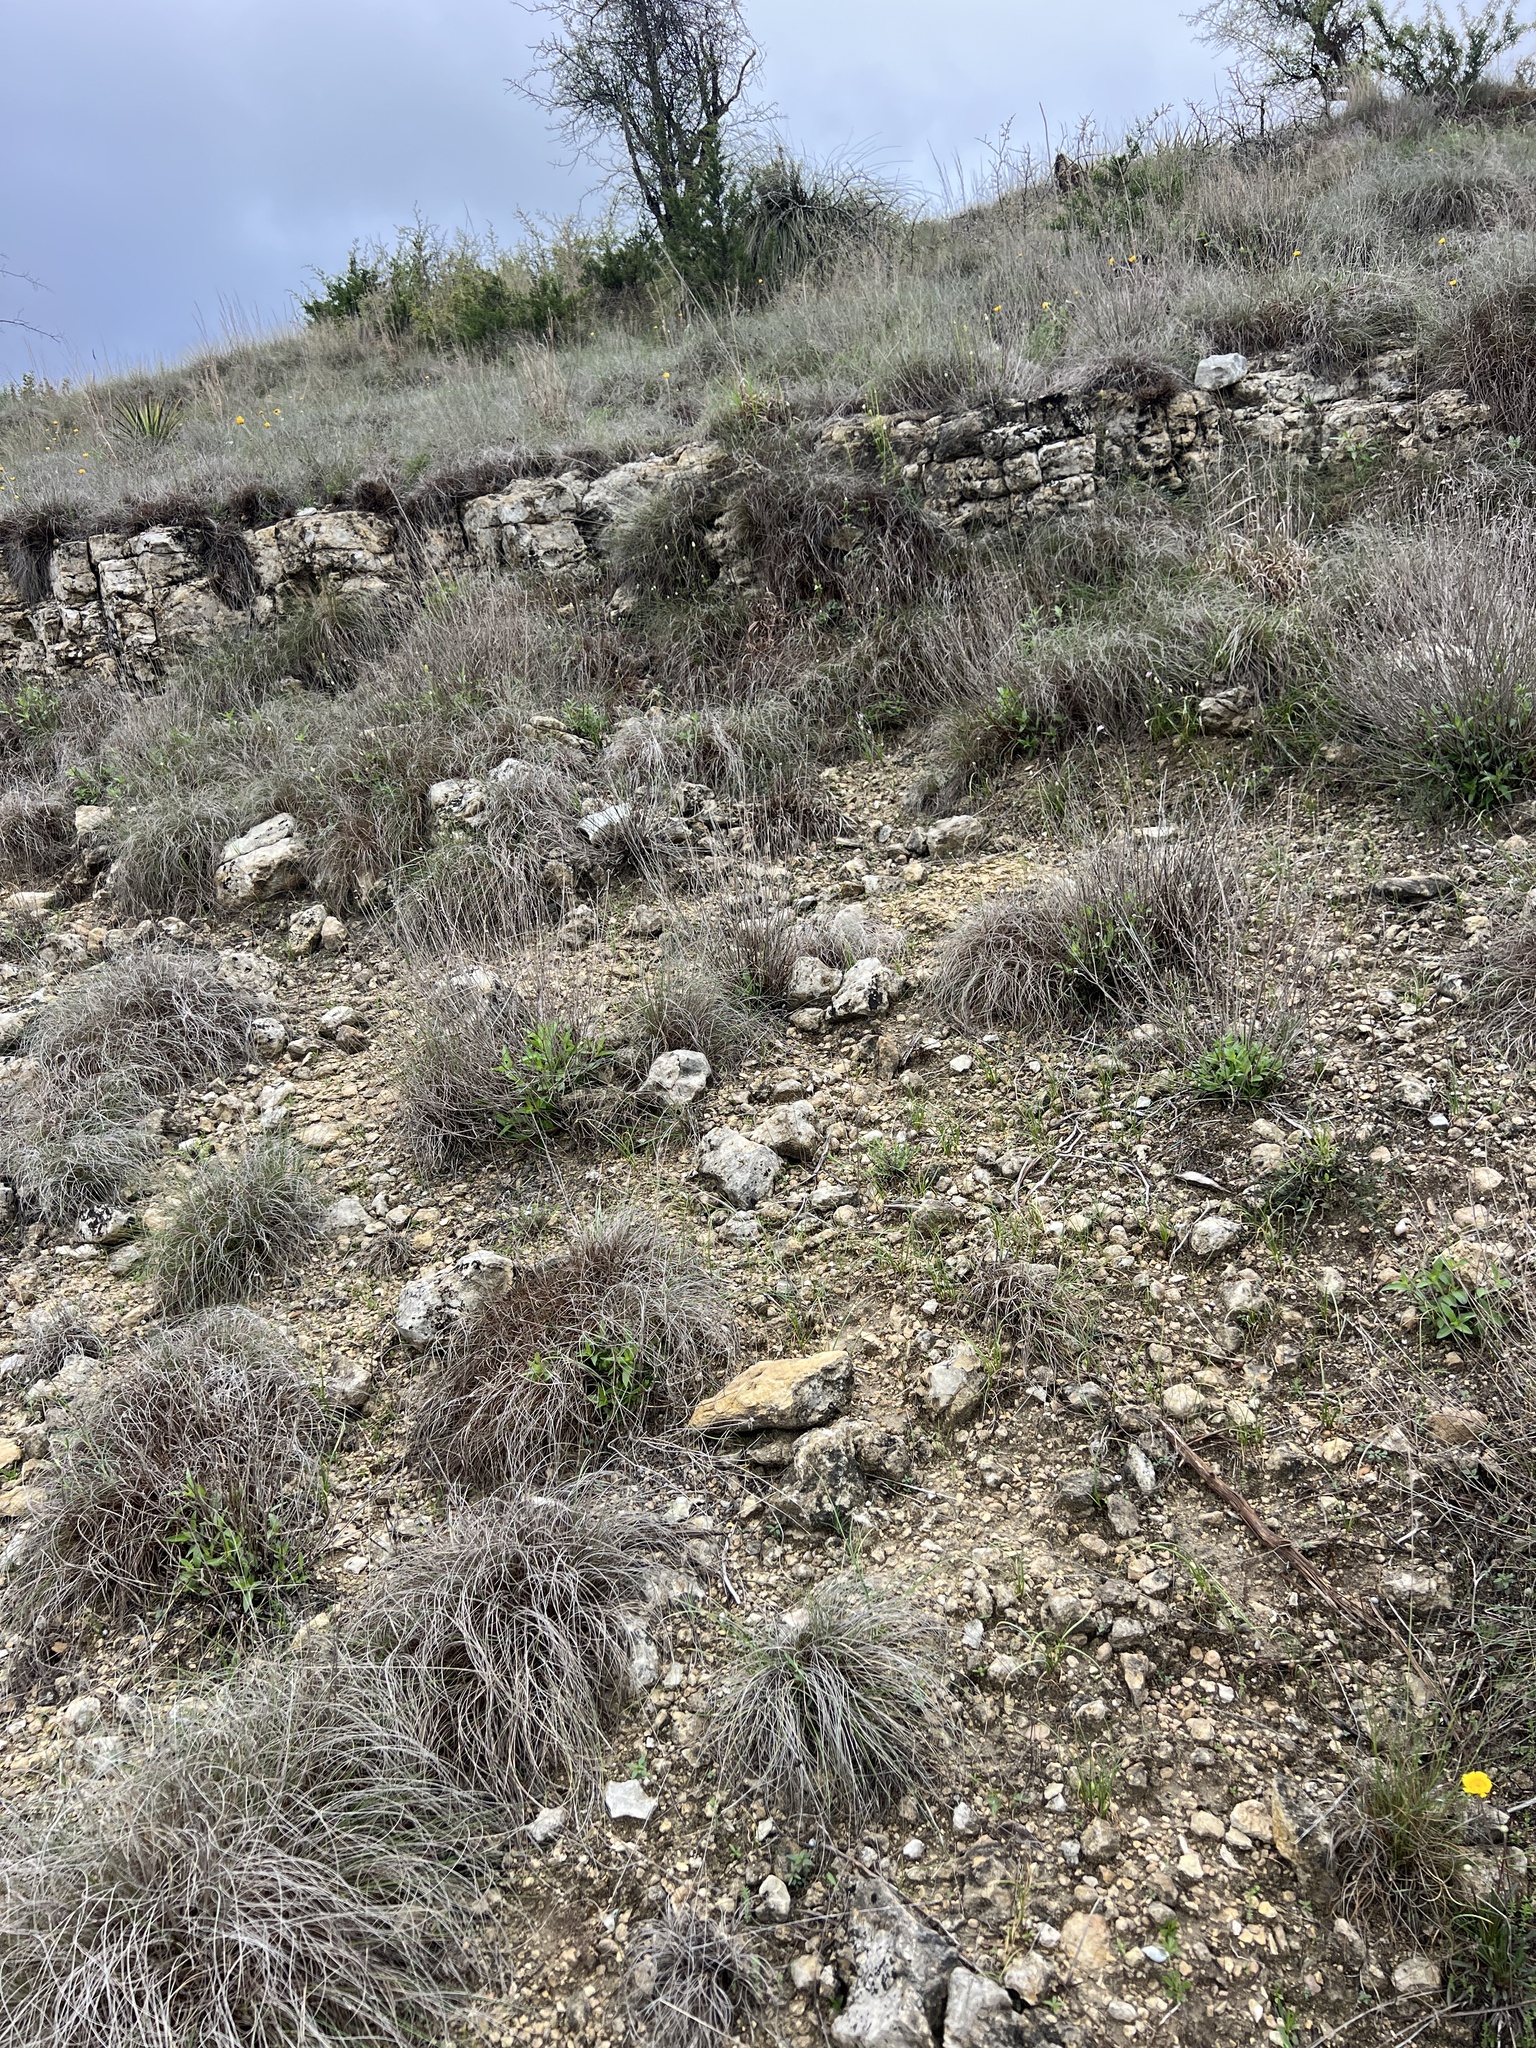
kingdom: Plantae
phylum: Tracheophyta
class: Liliopsida
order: Poales
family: Poaceae
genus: Muhlenbergia
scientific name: Muhlenbergia reverchonii
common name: Seep muhly
